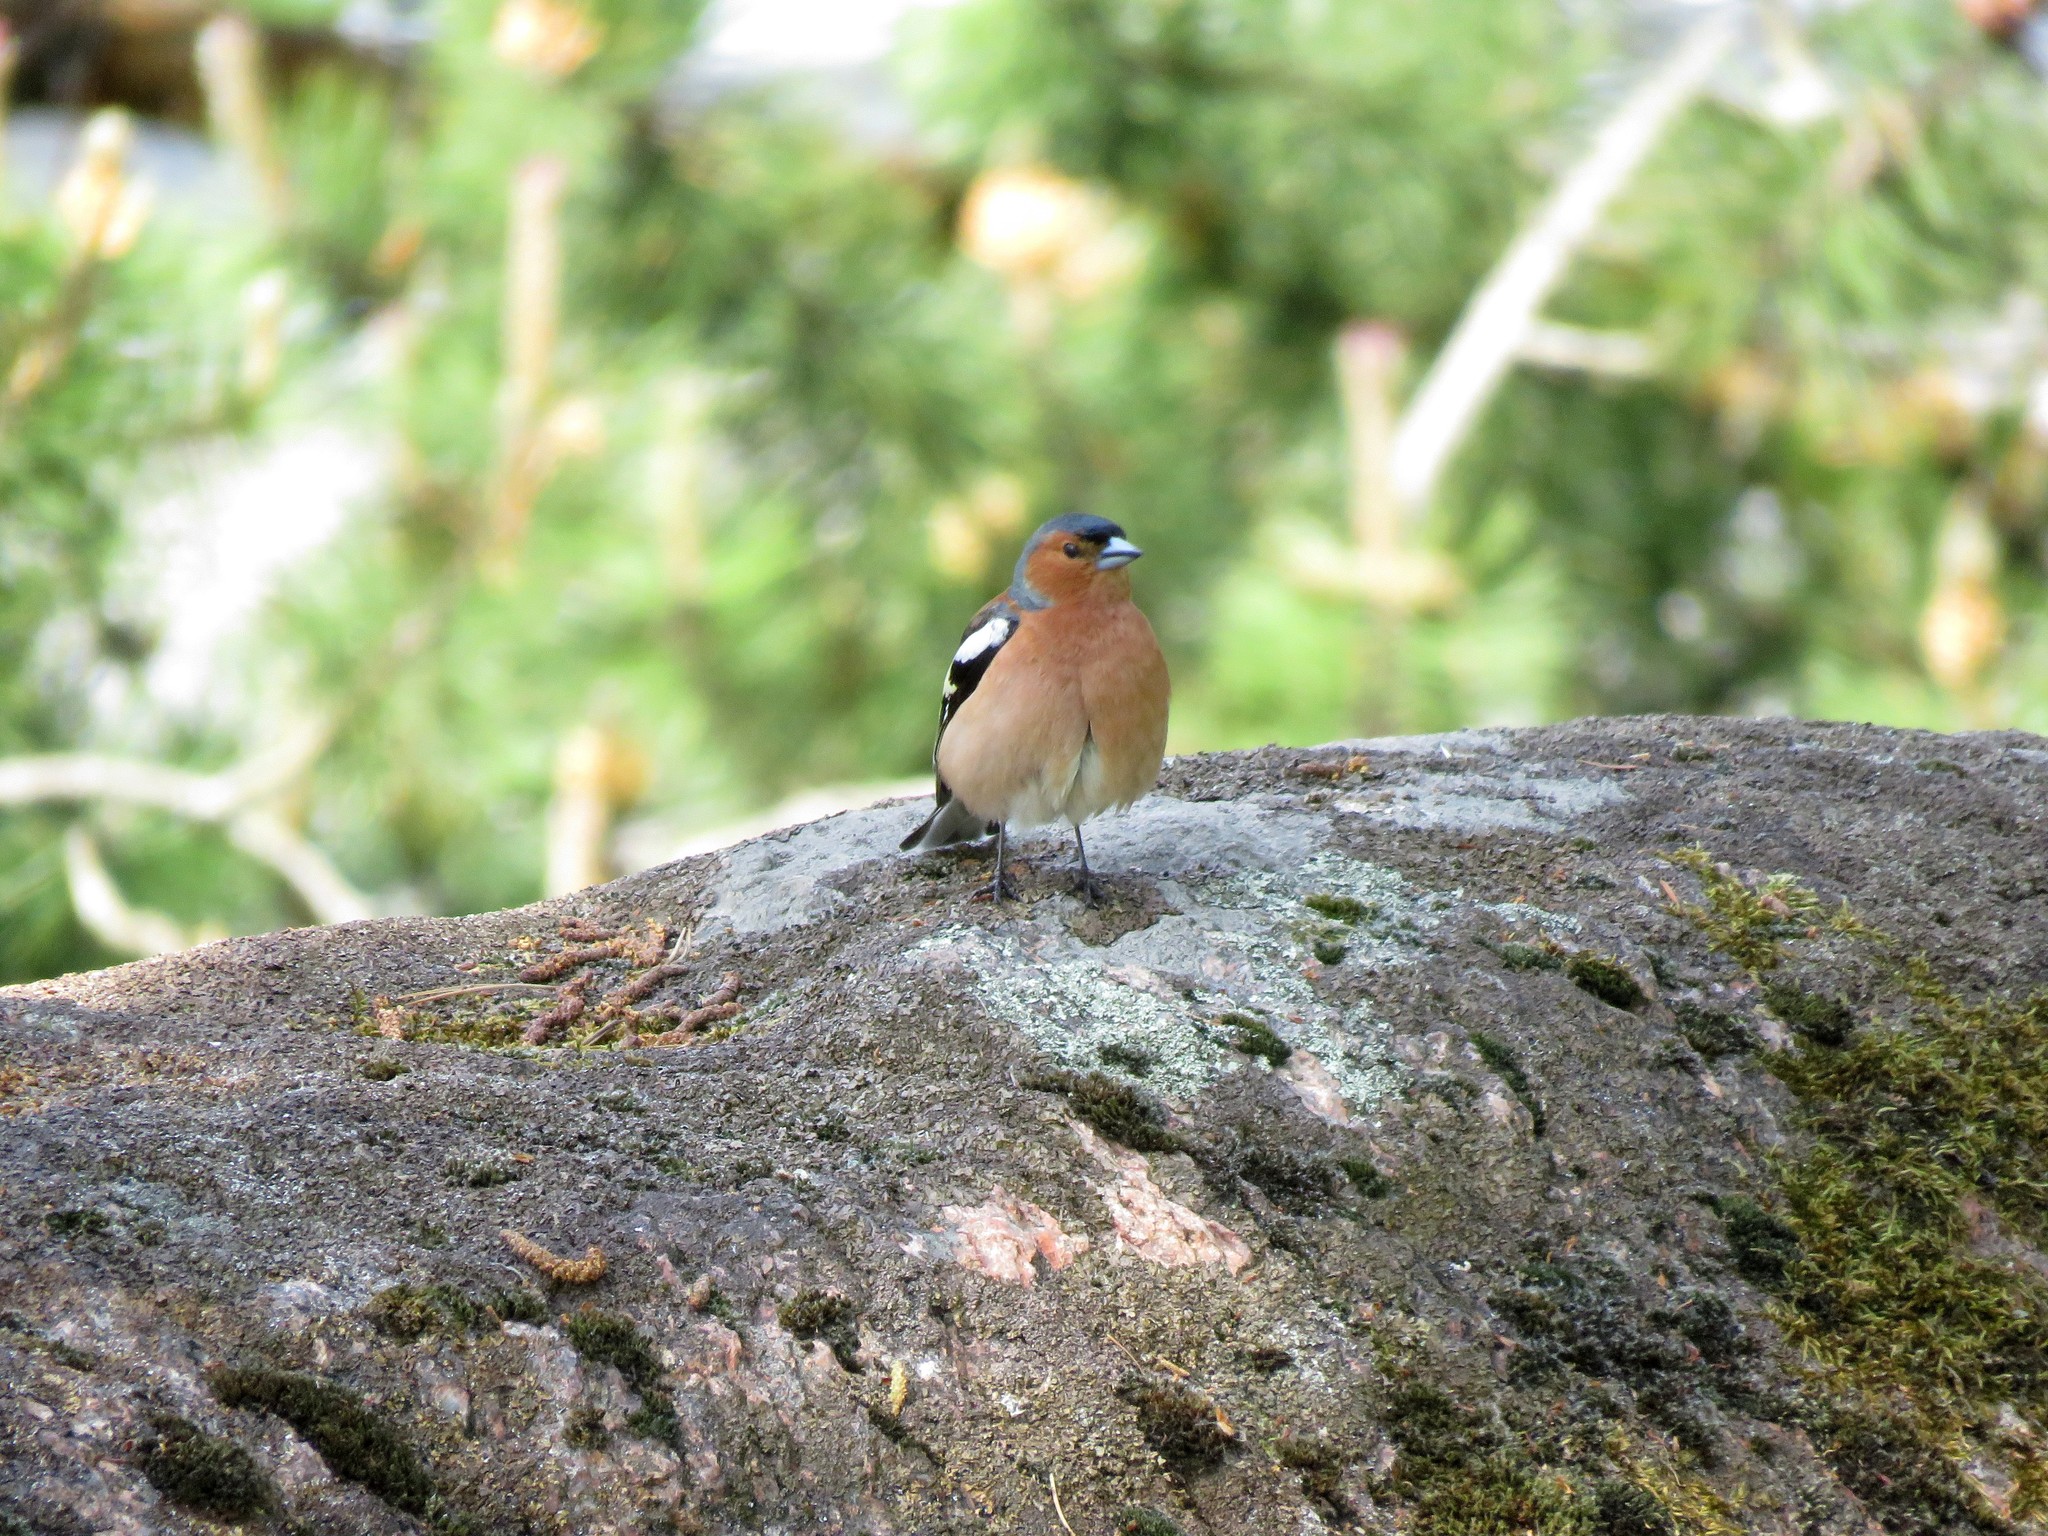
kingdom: Animalia
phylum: Chordata
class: Aves
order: Passeriformes
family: Fringillidae
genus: Fringilla
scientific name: Fringilla coelebs
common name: Common chaffinch
